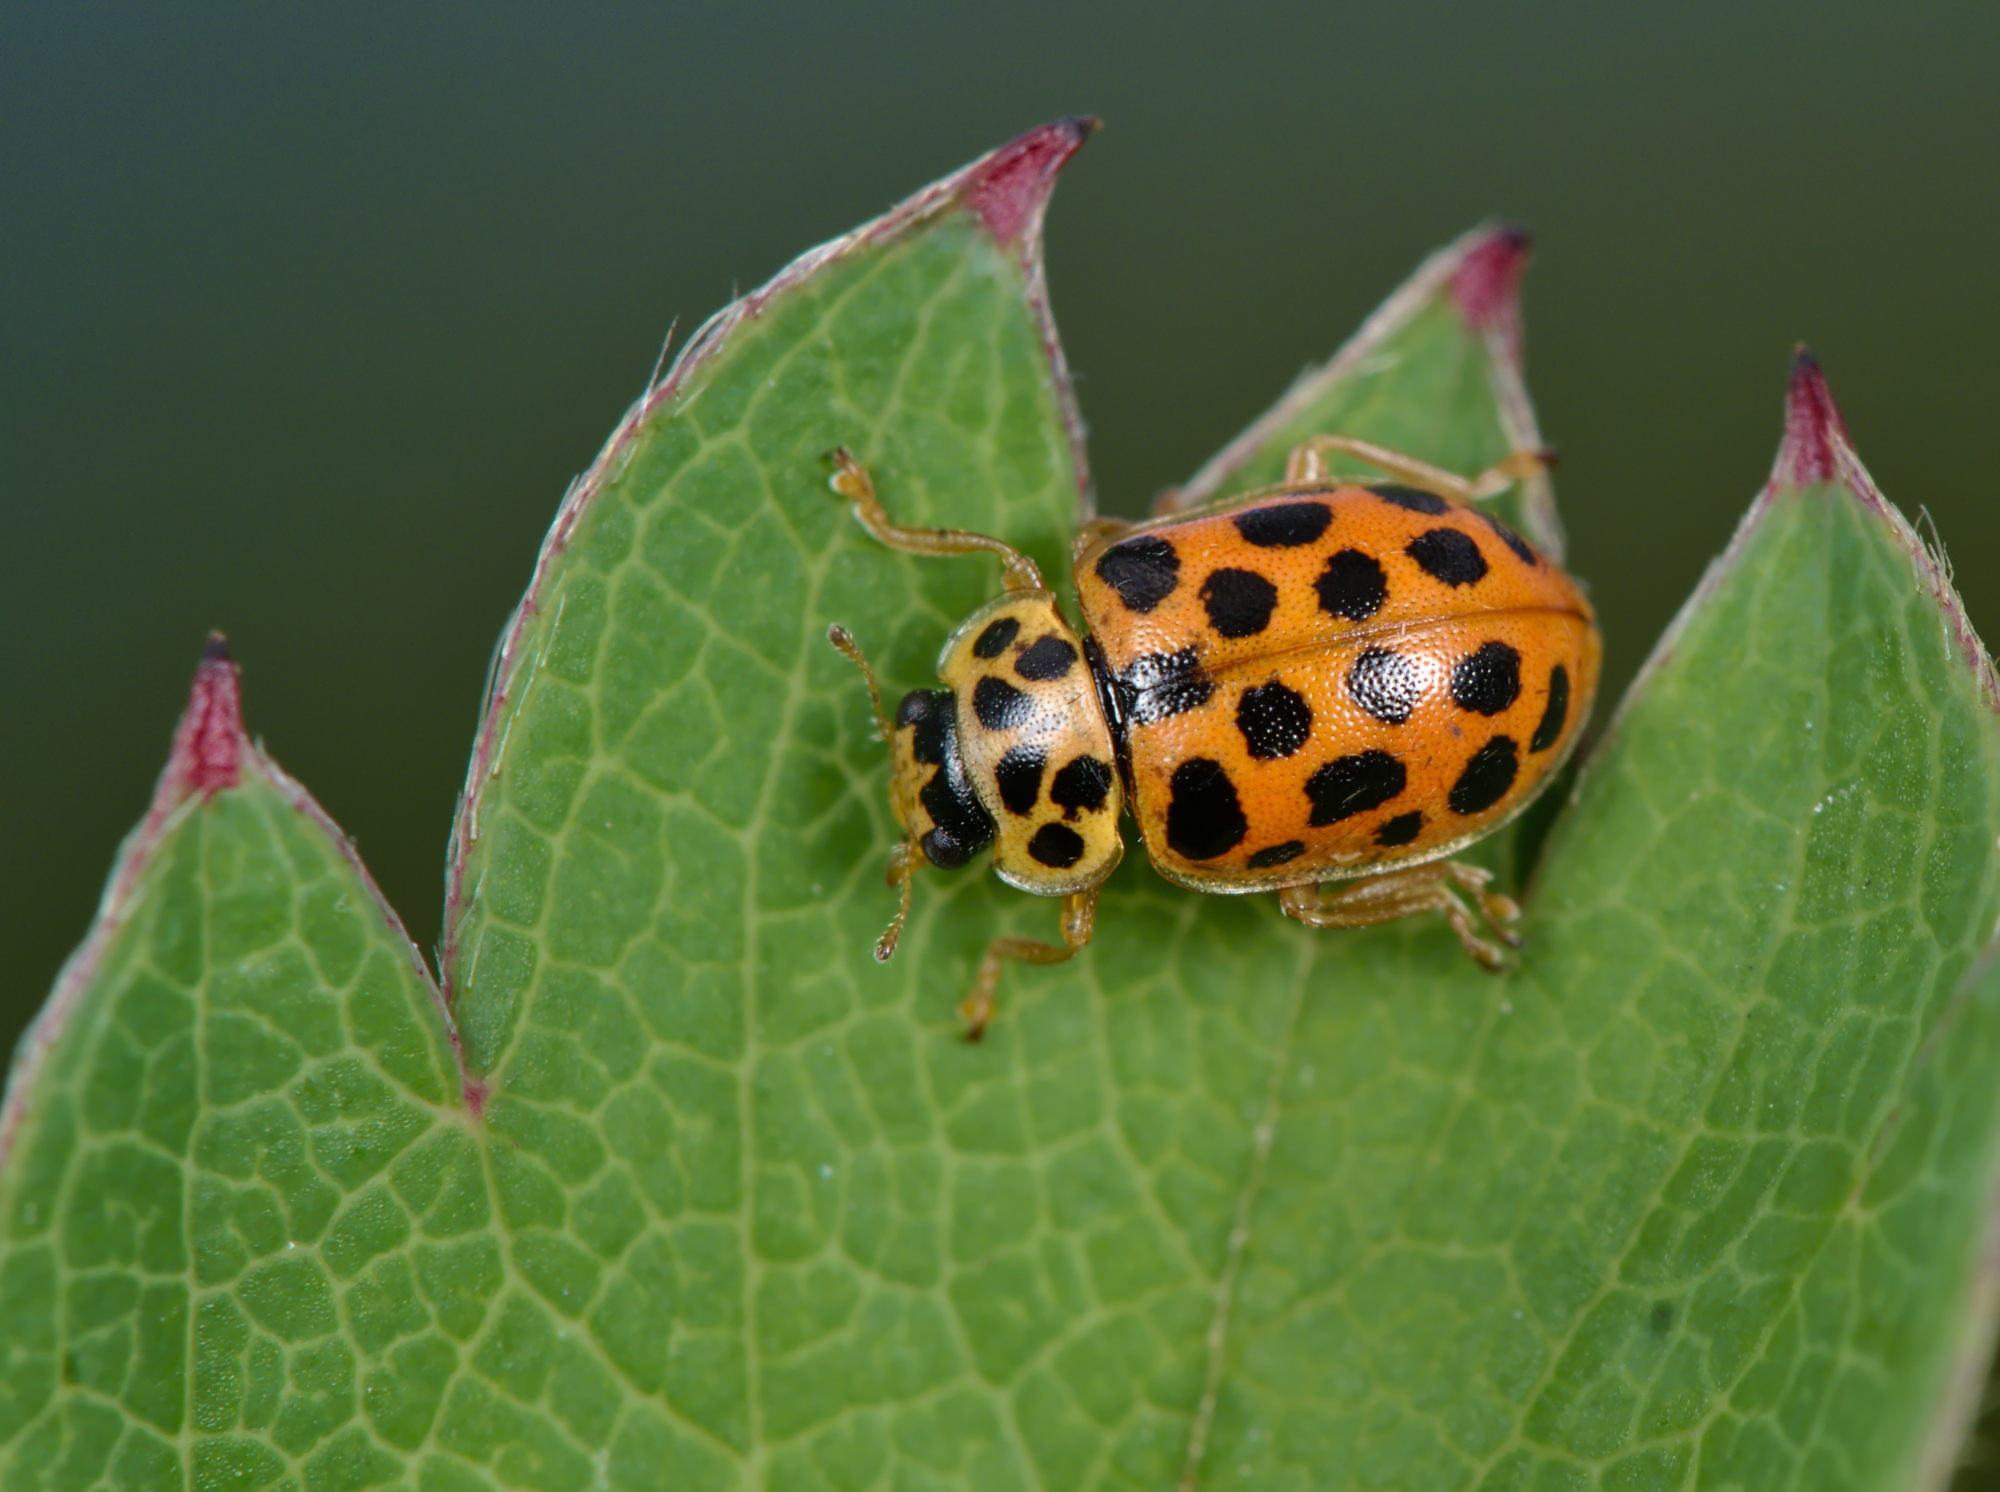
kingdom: Animalia
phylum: Arthropoda
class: Insecta
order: Coleoptera
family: Coccinellidae
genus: Anisosticta
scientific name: Anisosticta novemdecimpunctata
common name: Water ladybird
